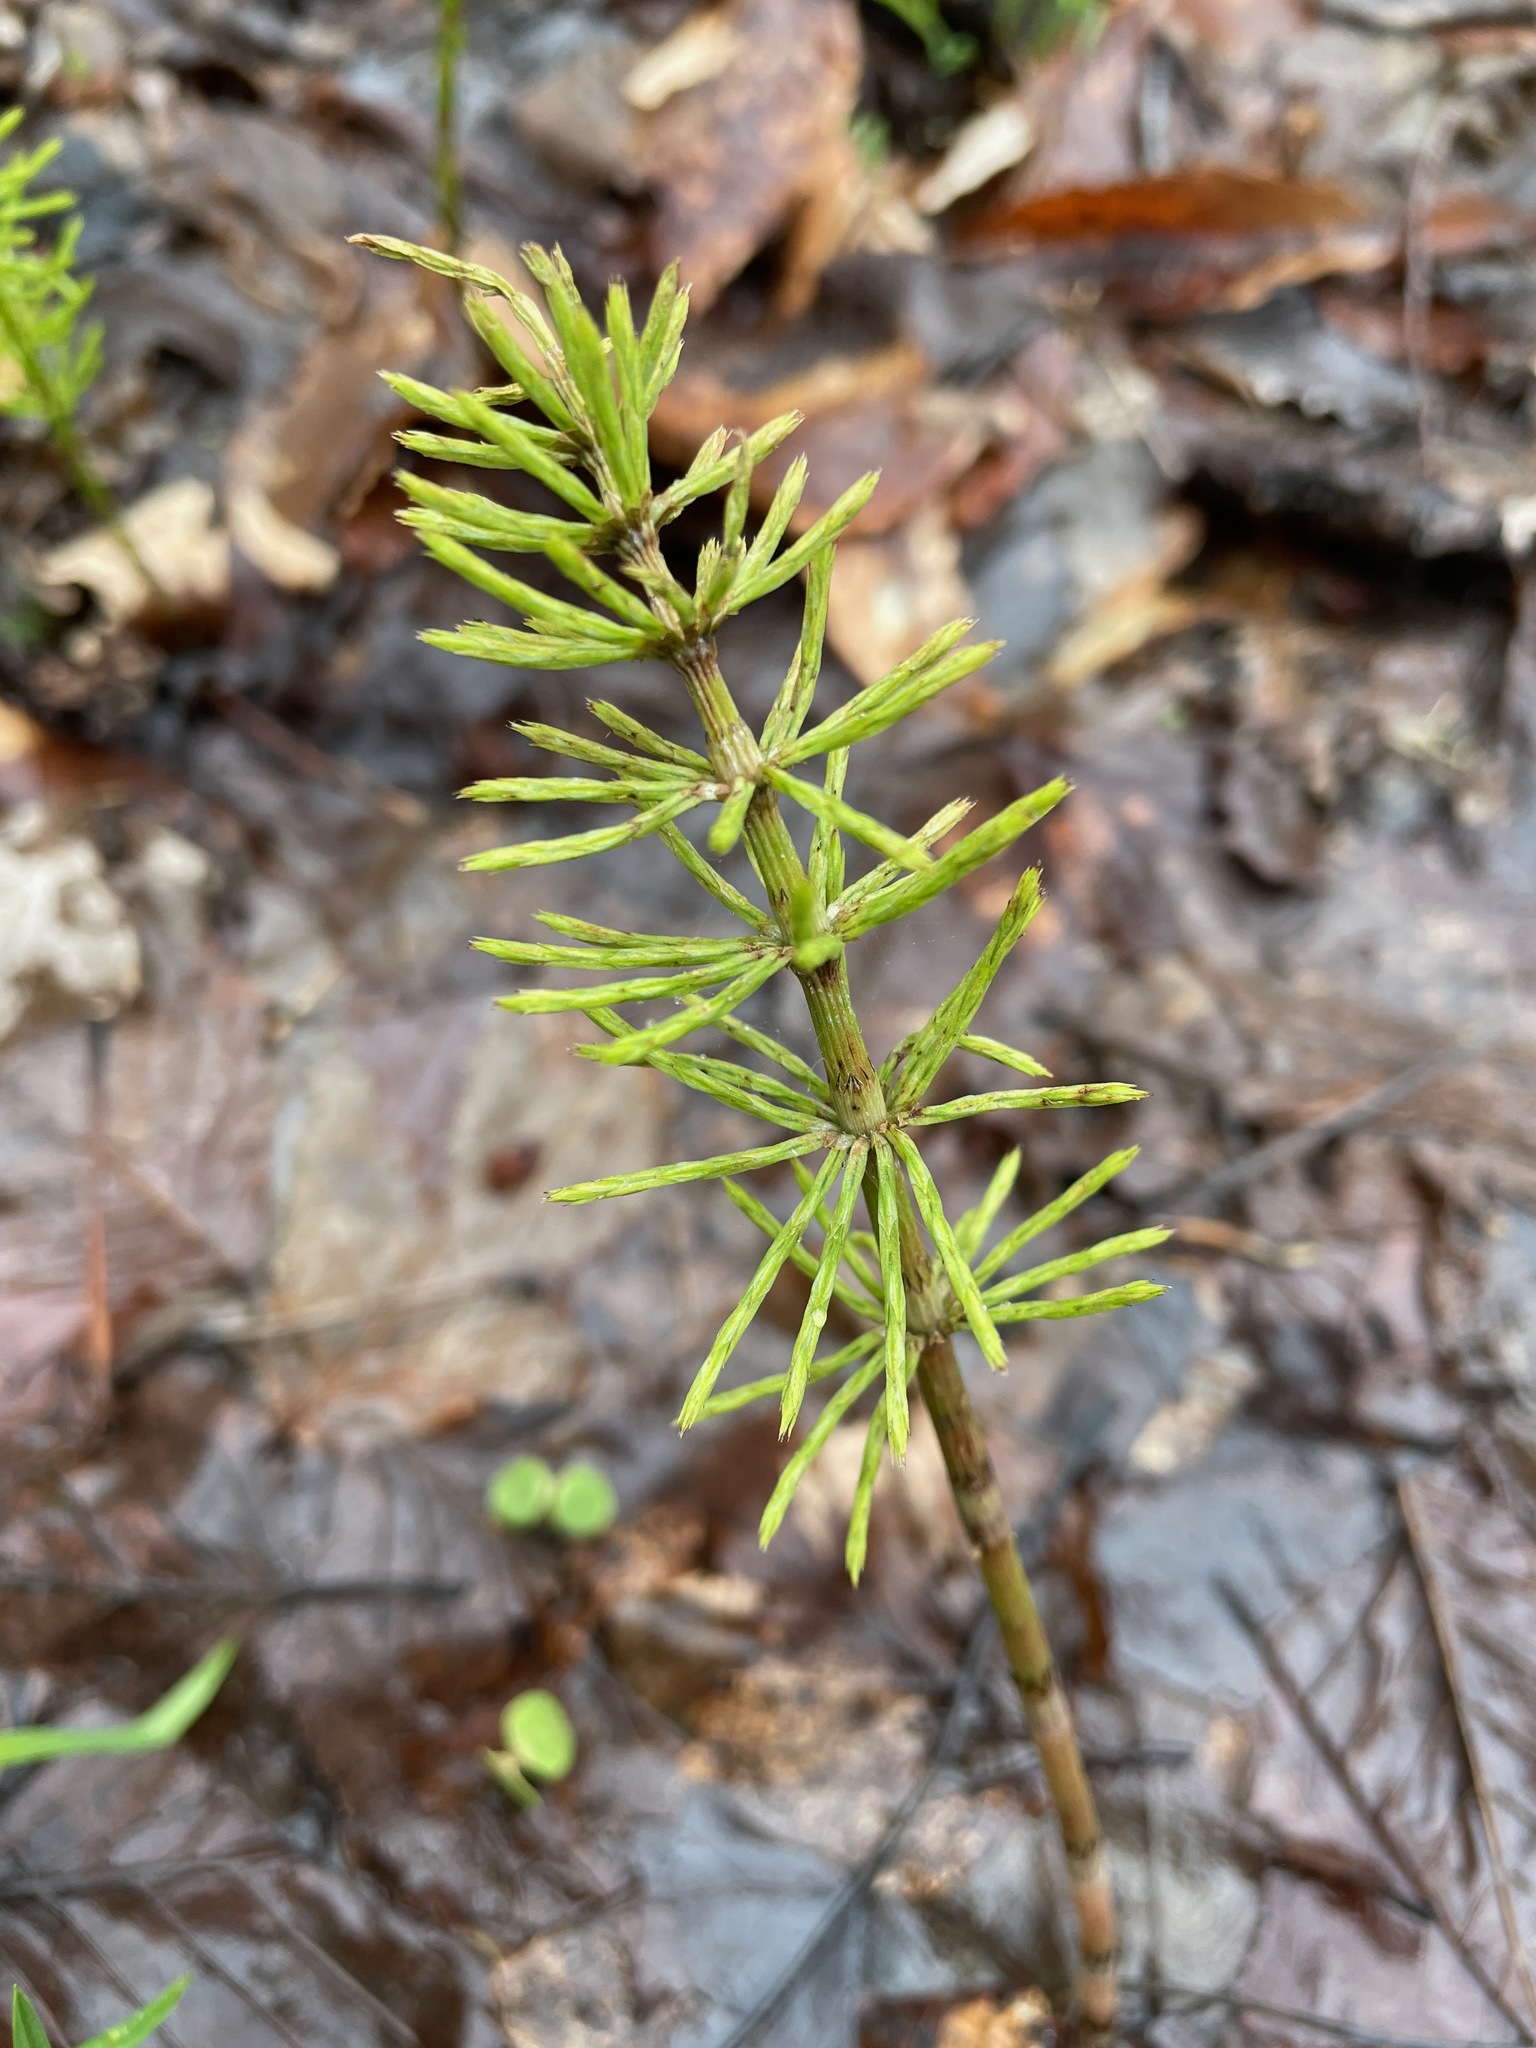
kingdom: Plantae
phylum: Tracheophyta
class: Polypodiopsida
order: Equisetales
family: Equisetaceae
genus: Equisetum
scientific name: Equisetum arvense
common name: Field horsetail
